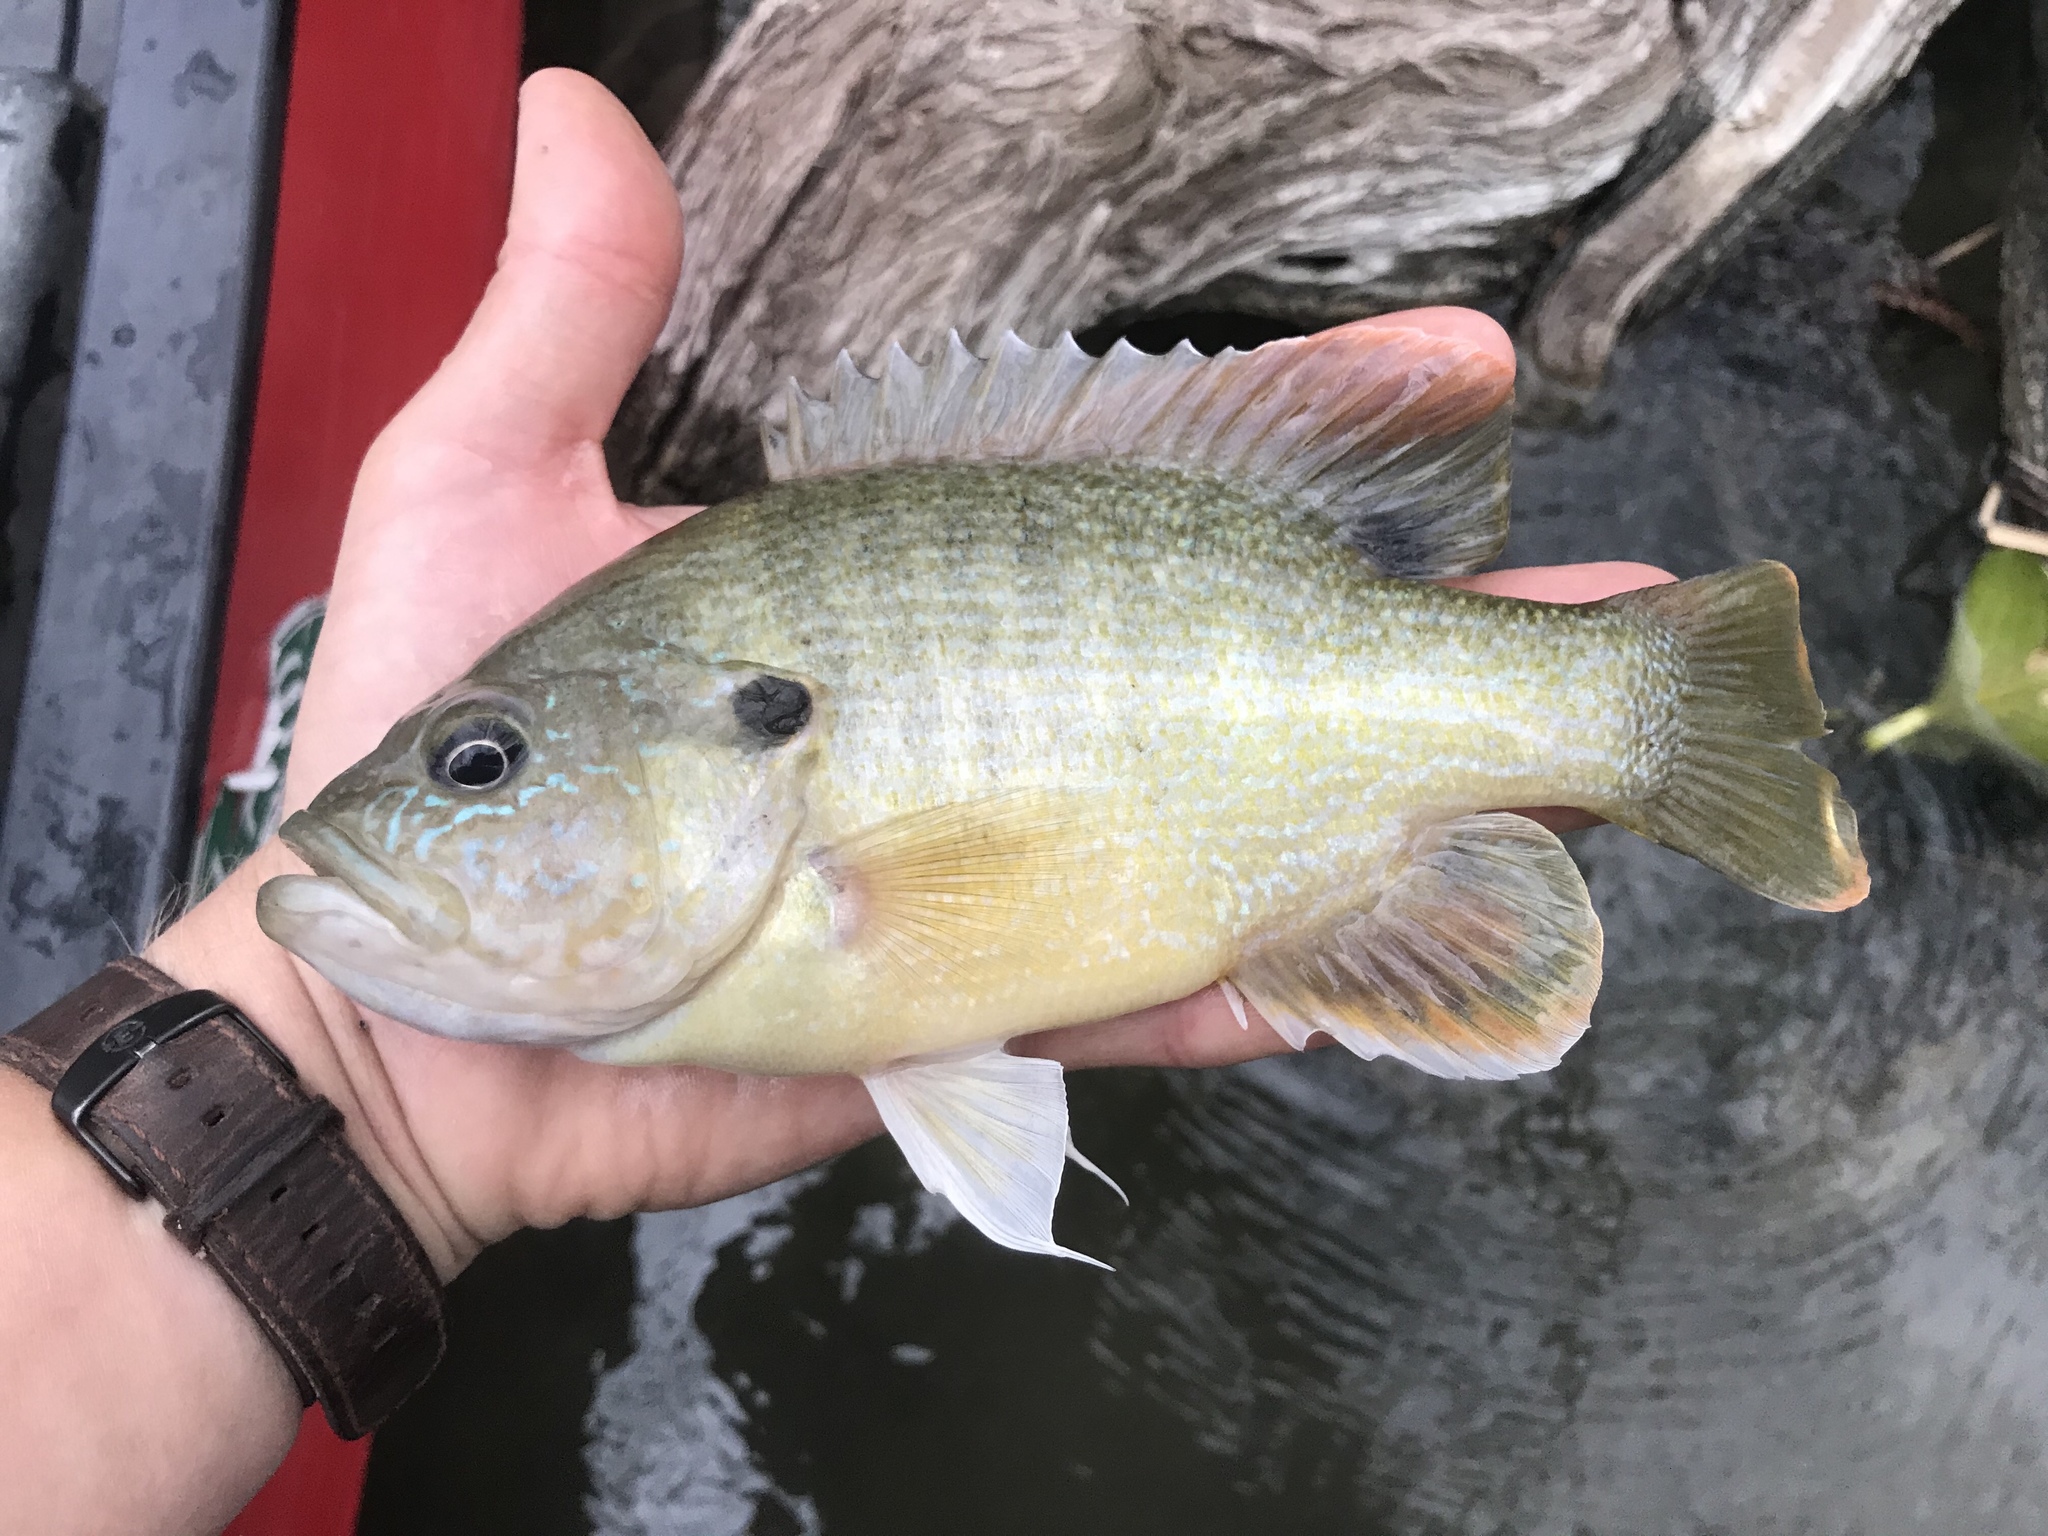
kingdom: Animalia
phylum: Chordata
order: Perciformes
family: Centrarchidae
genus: Lepomis
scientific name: Lepomis cyanellus
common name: Green sunfish
